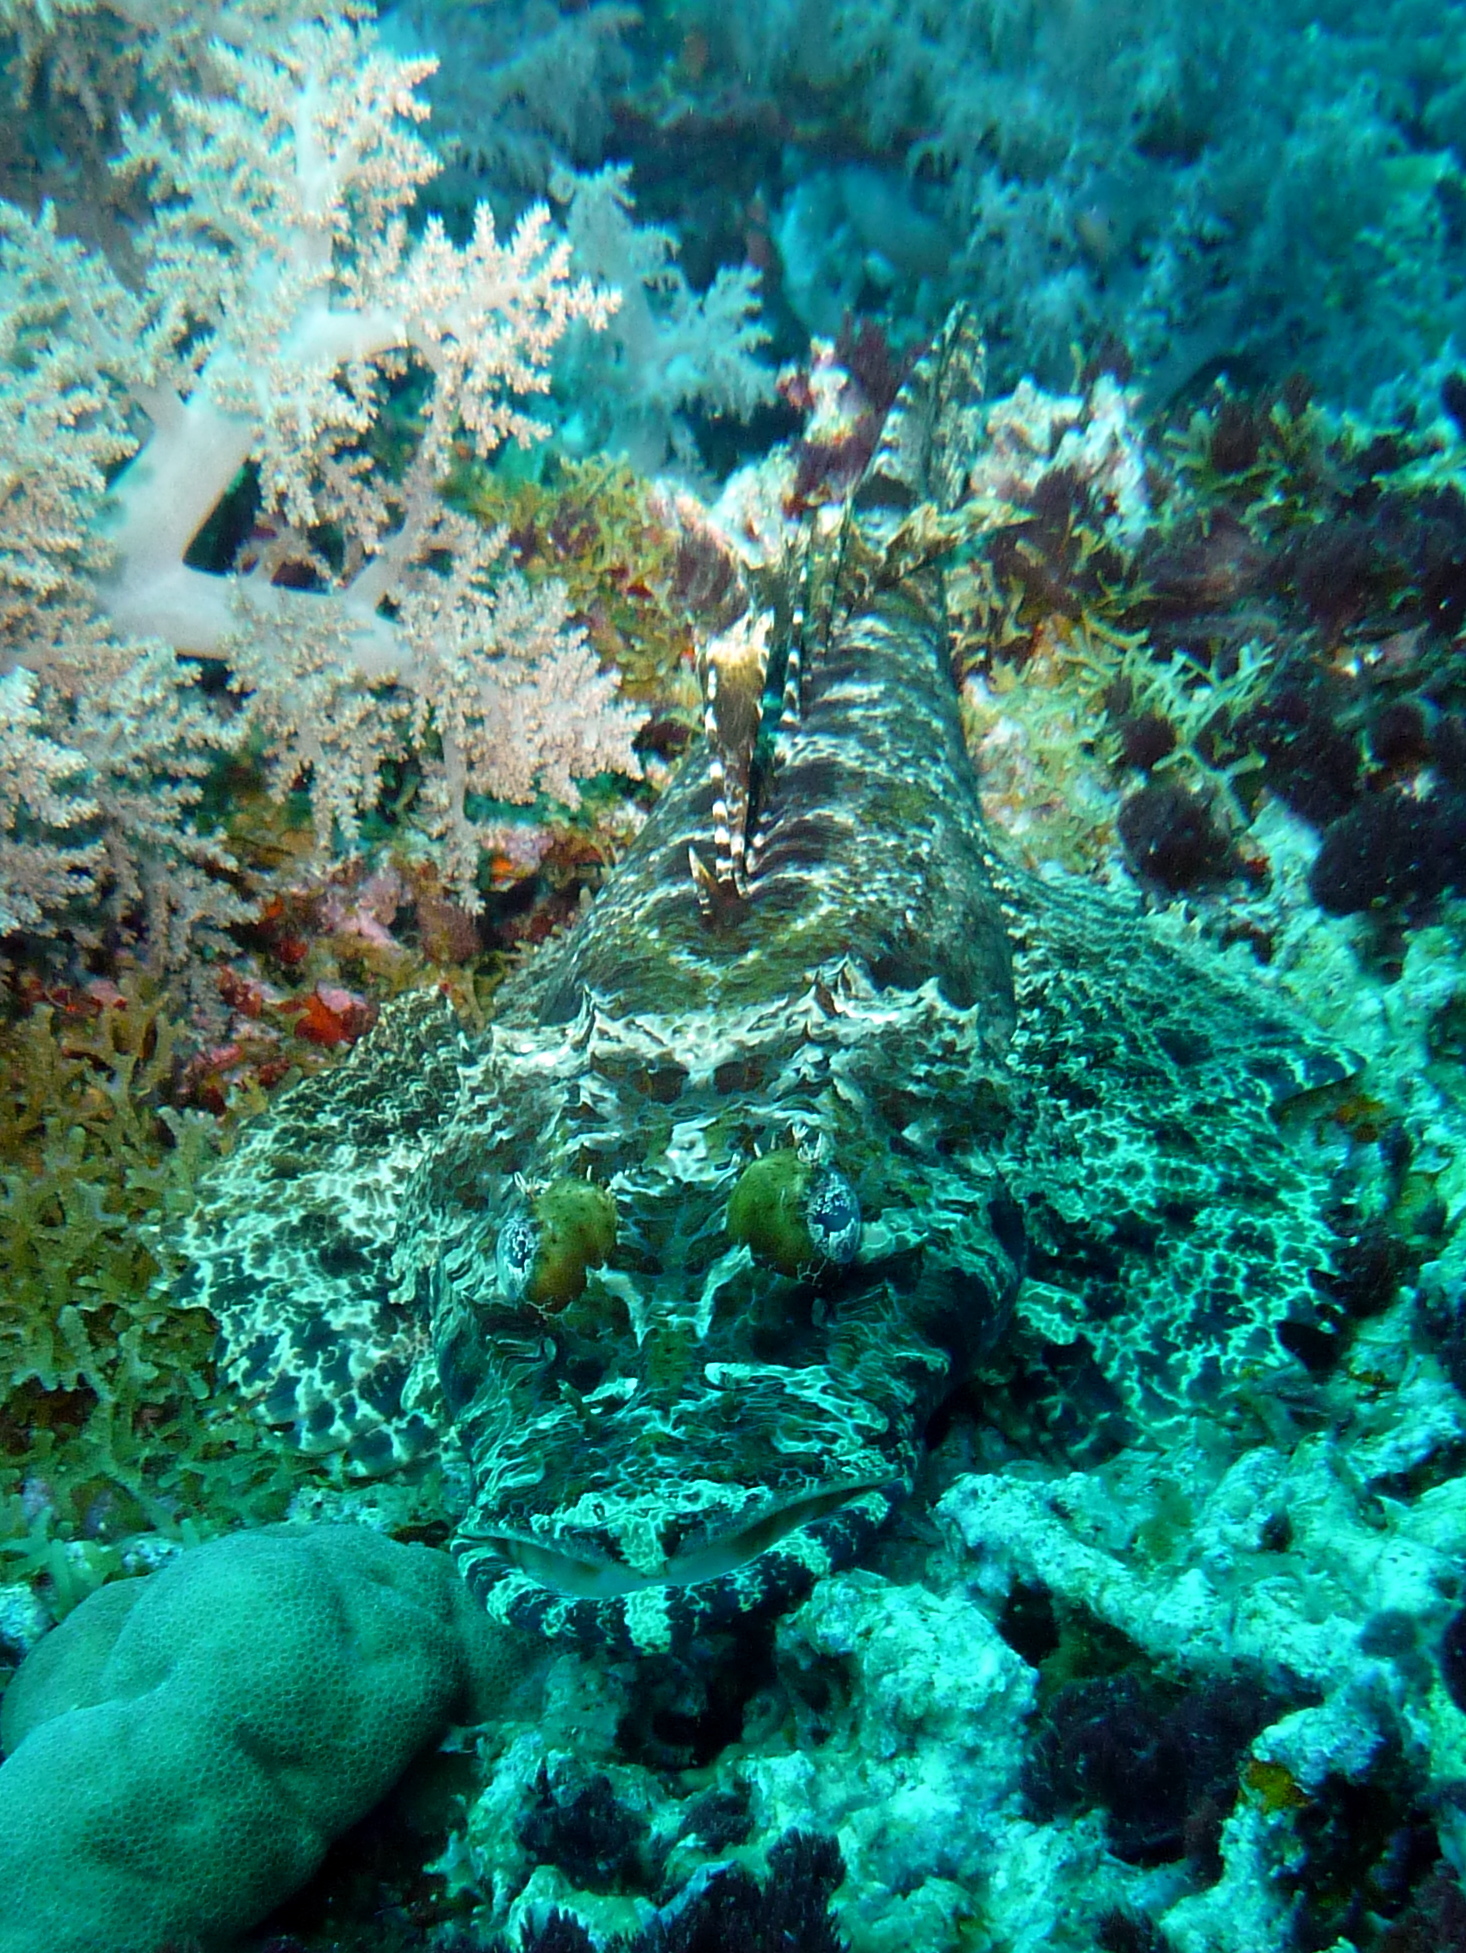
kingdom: Animalia
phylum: Chordata
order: Scorpaeniformes
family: Platycephalidae
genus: Cymbacephalus
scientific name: Cymbacephalus beauforti
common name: Crocodile fish
